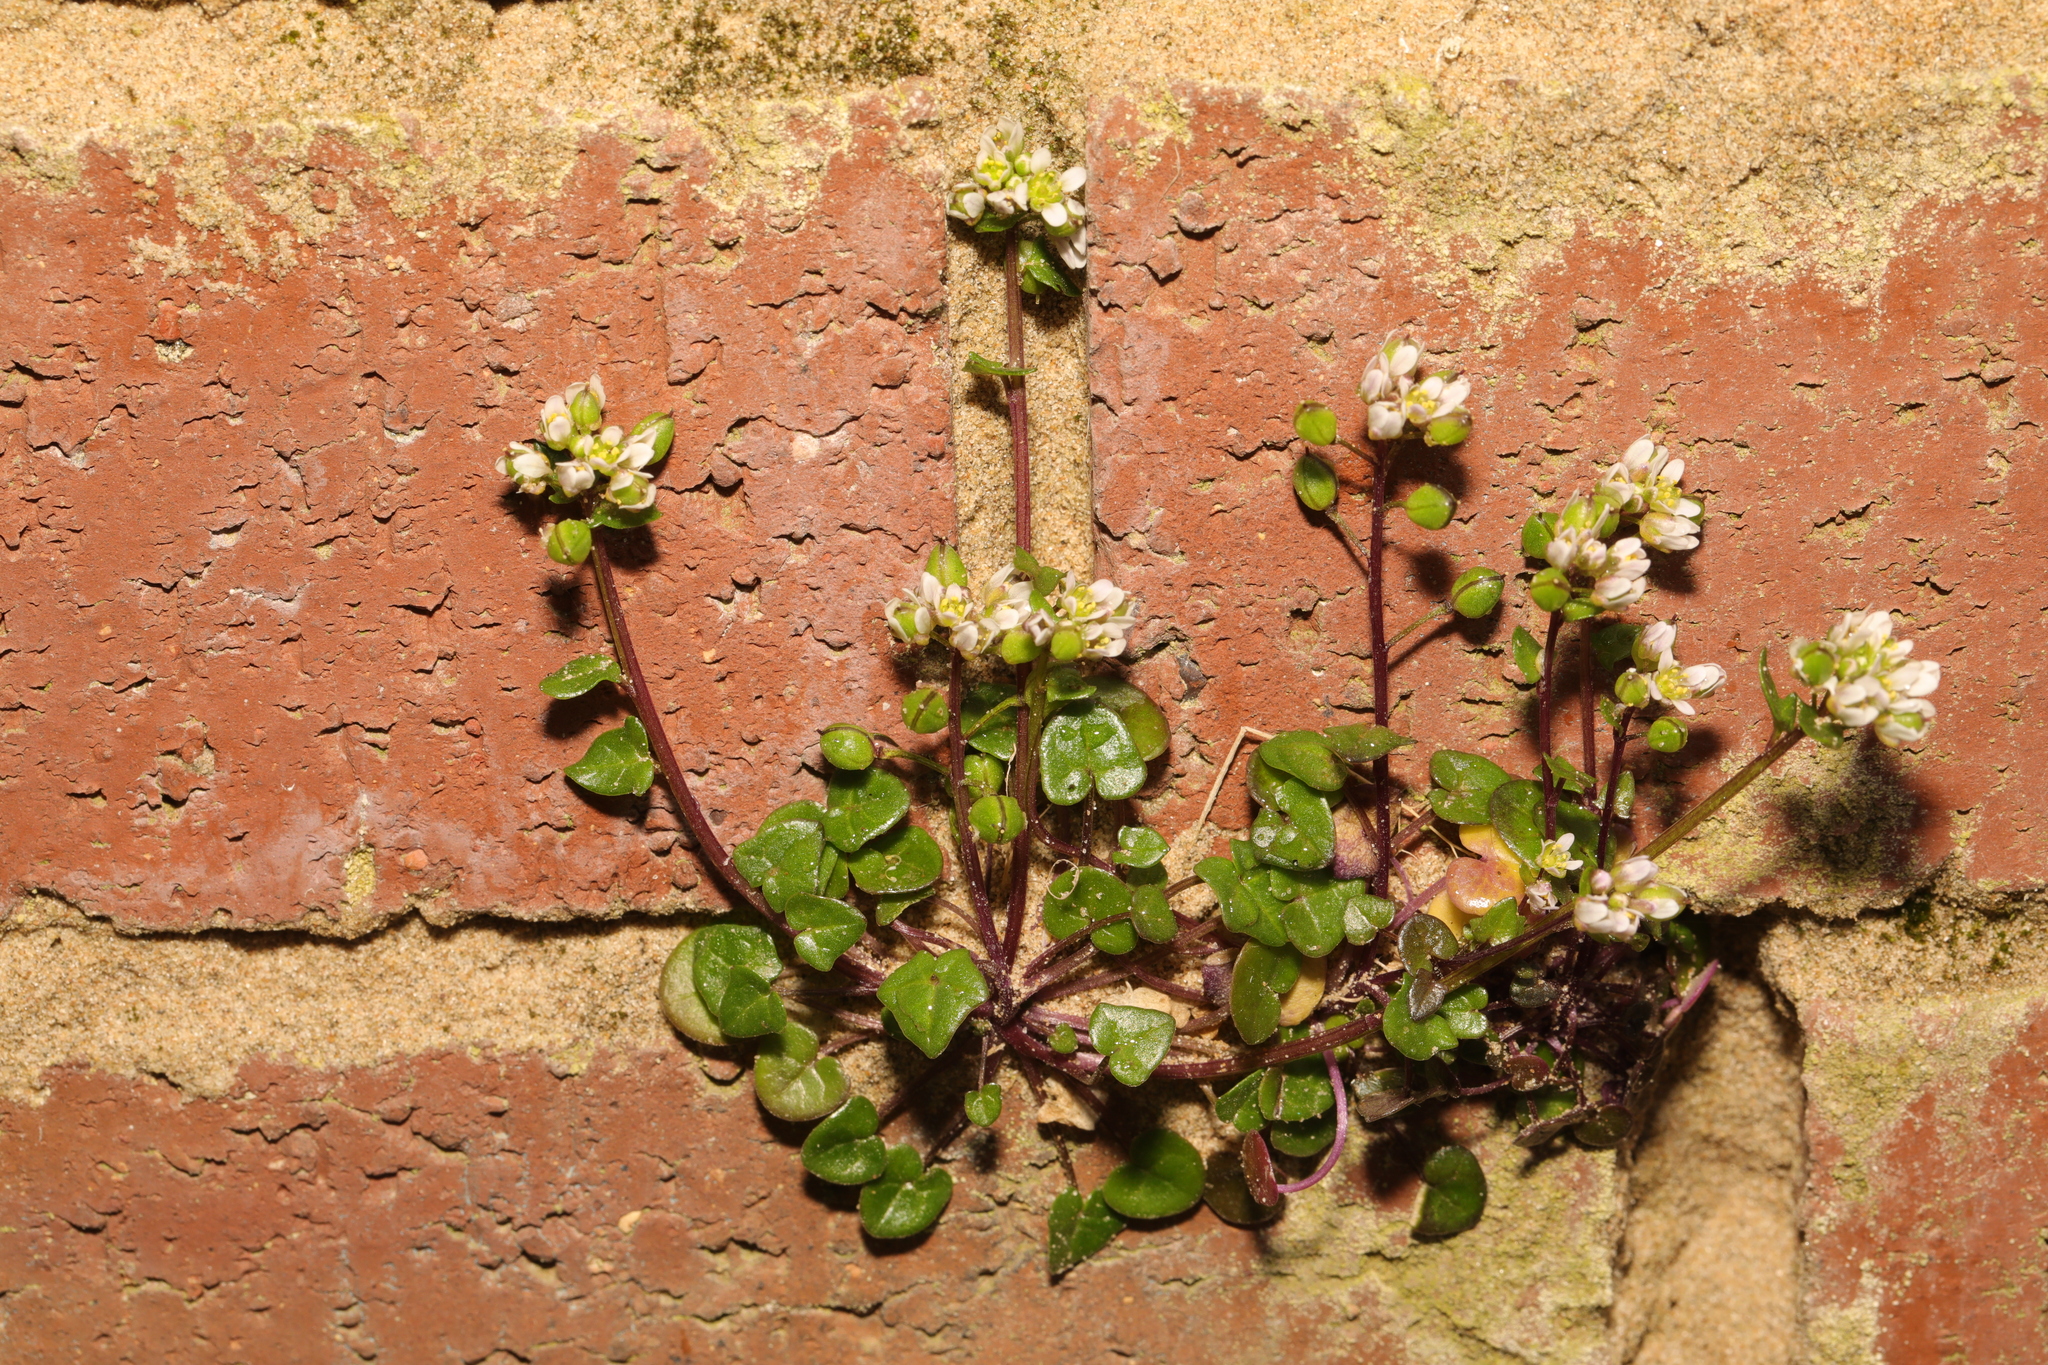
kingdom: Plantae
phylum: Tracheophyta
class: Magnoliopsida
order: Brassicales
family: Brassicaceae
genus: Cochlearia
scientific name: Cochlearia danica
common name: Early scurvygrass
